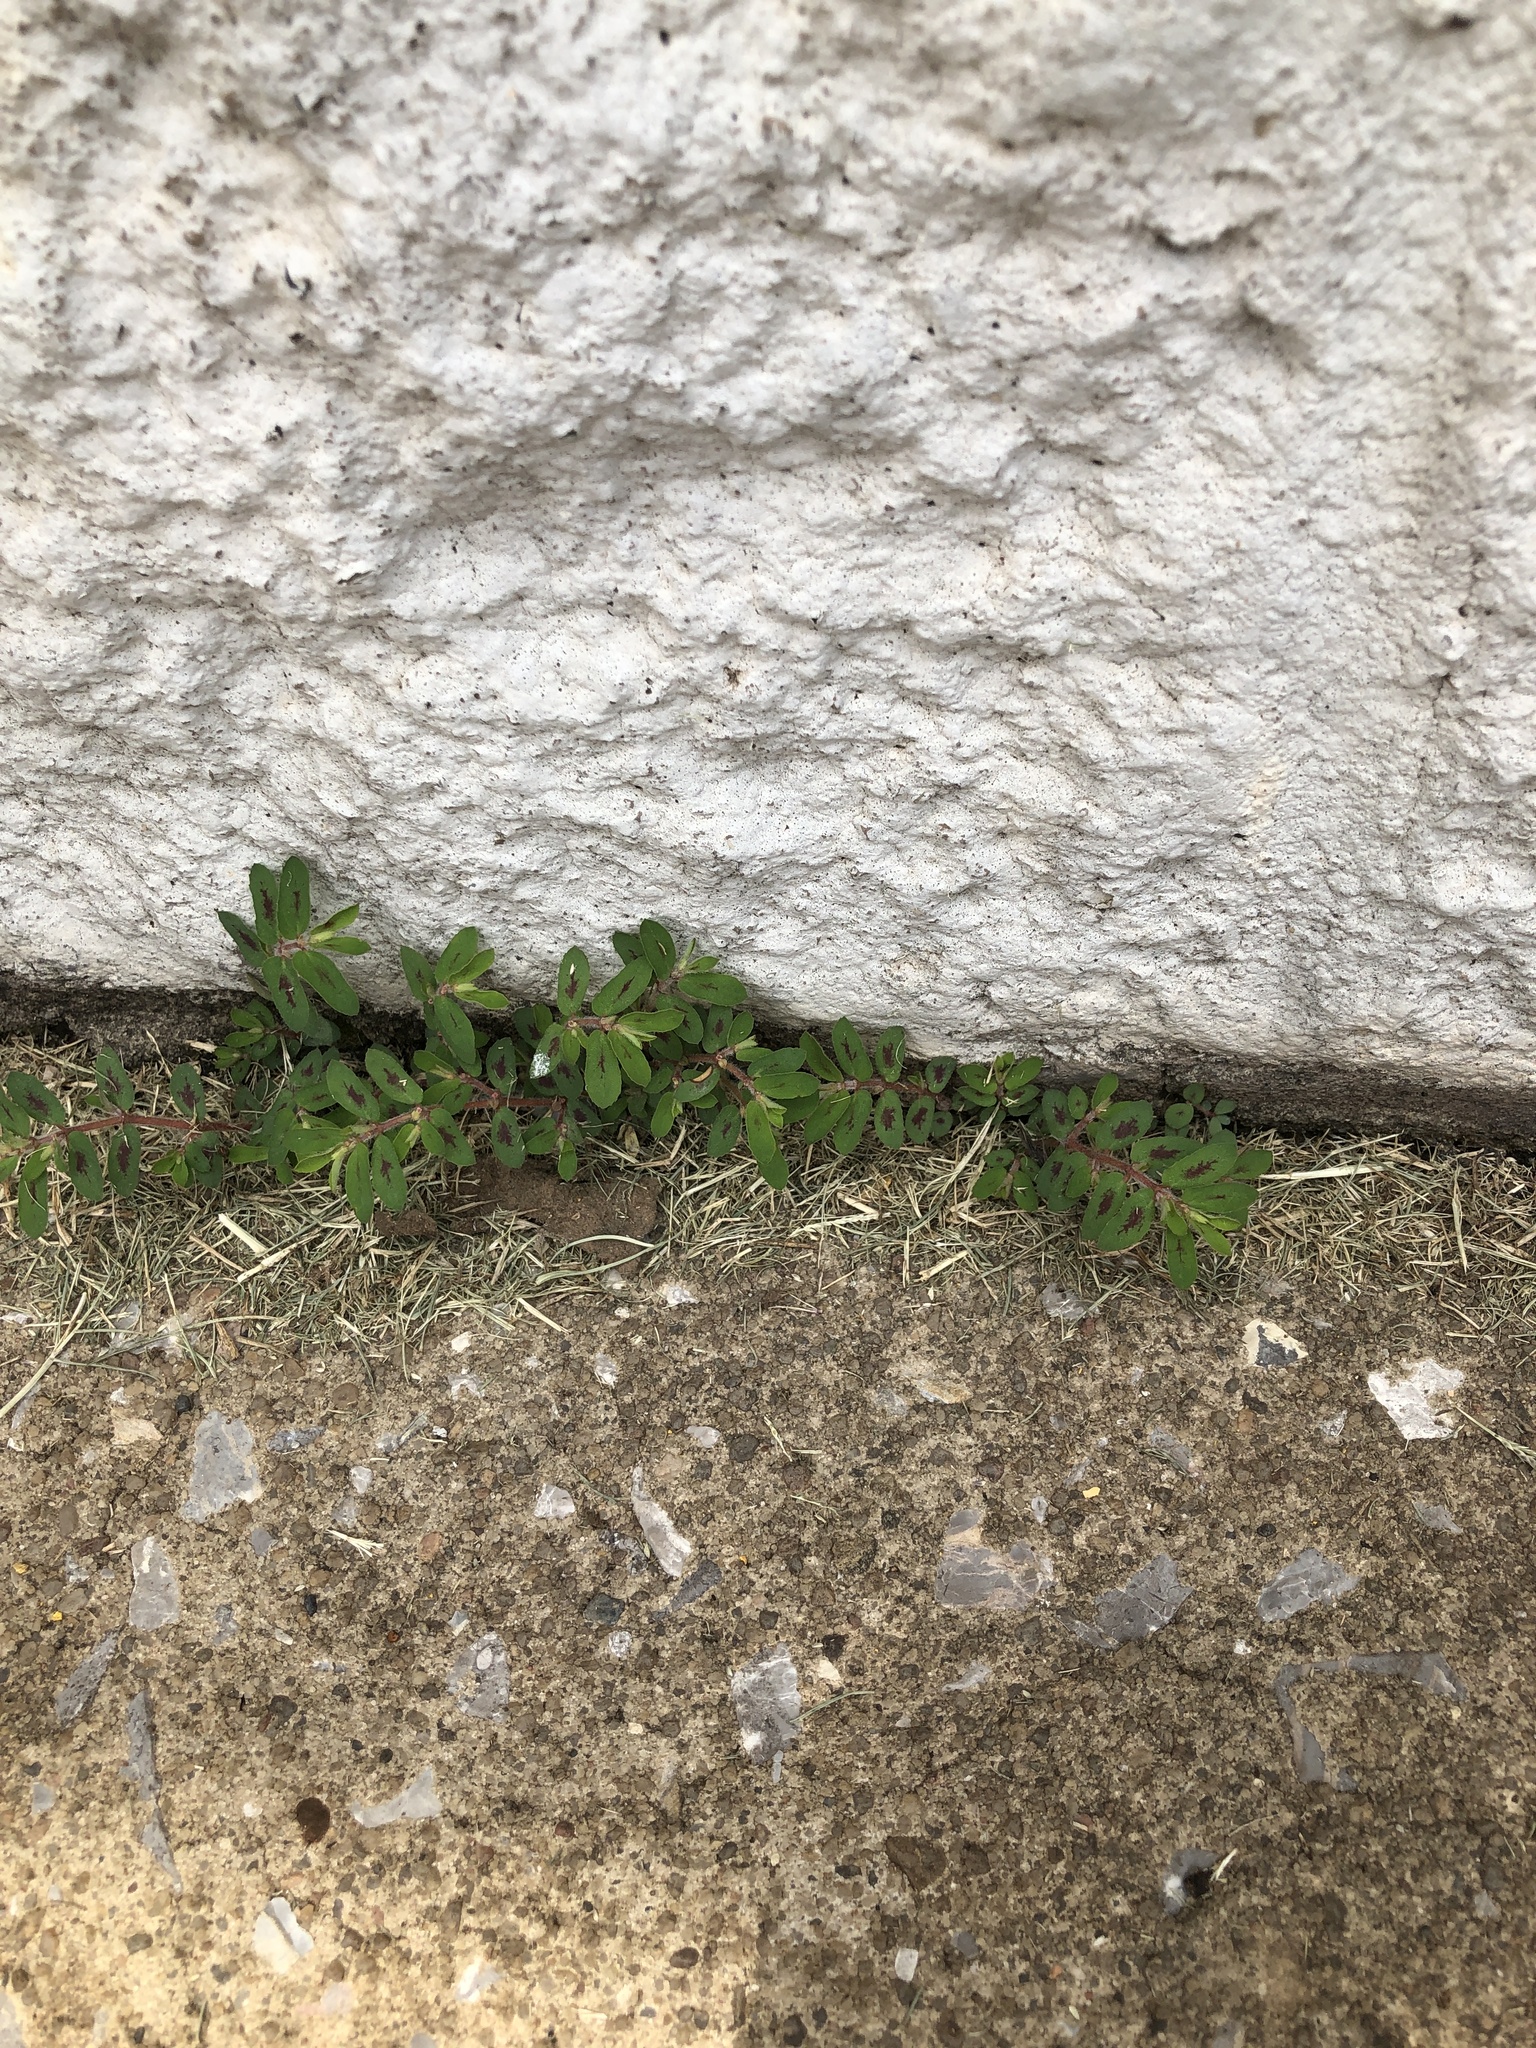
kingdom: Plantae
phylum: Tracheophyta
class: Magnoliopsida
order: Malpighiales
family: Euphorbiaceae
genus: Euphorbia
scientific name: Euphorbia maculata
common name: Spotted spurge
